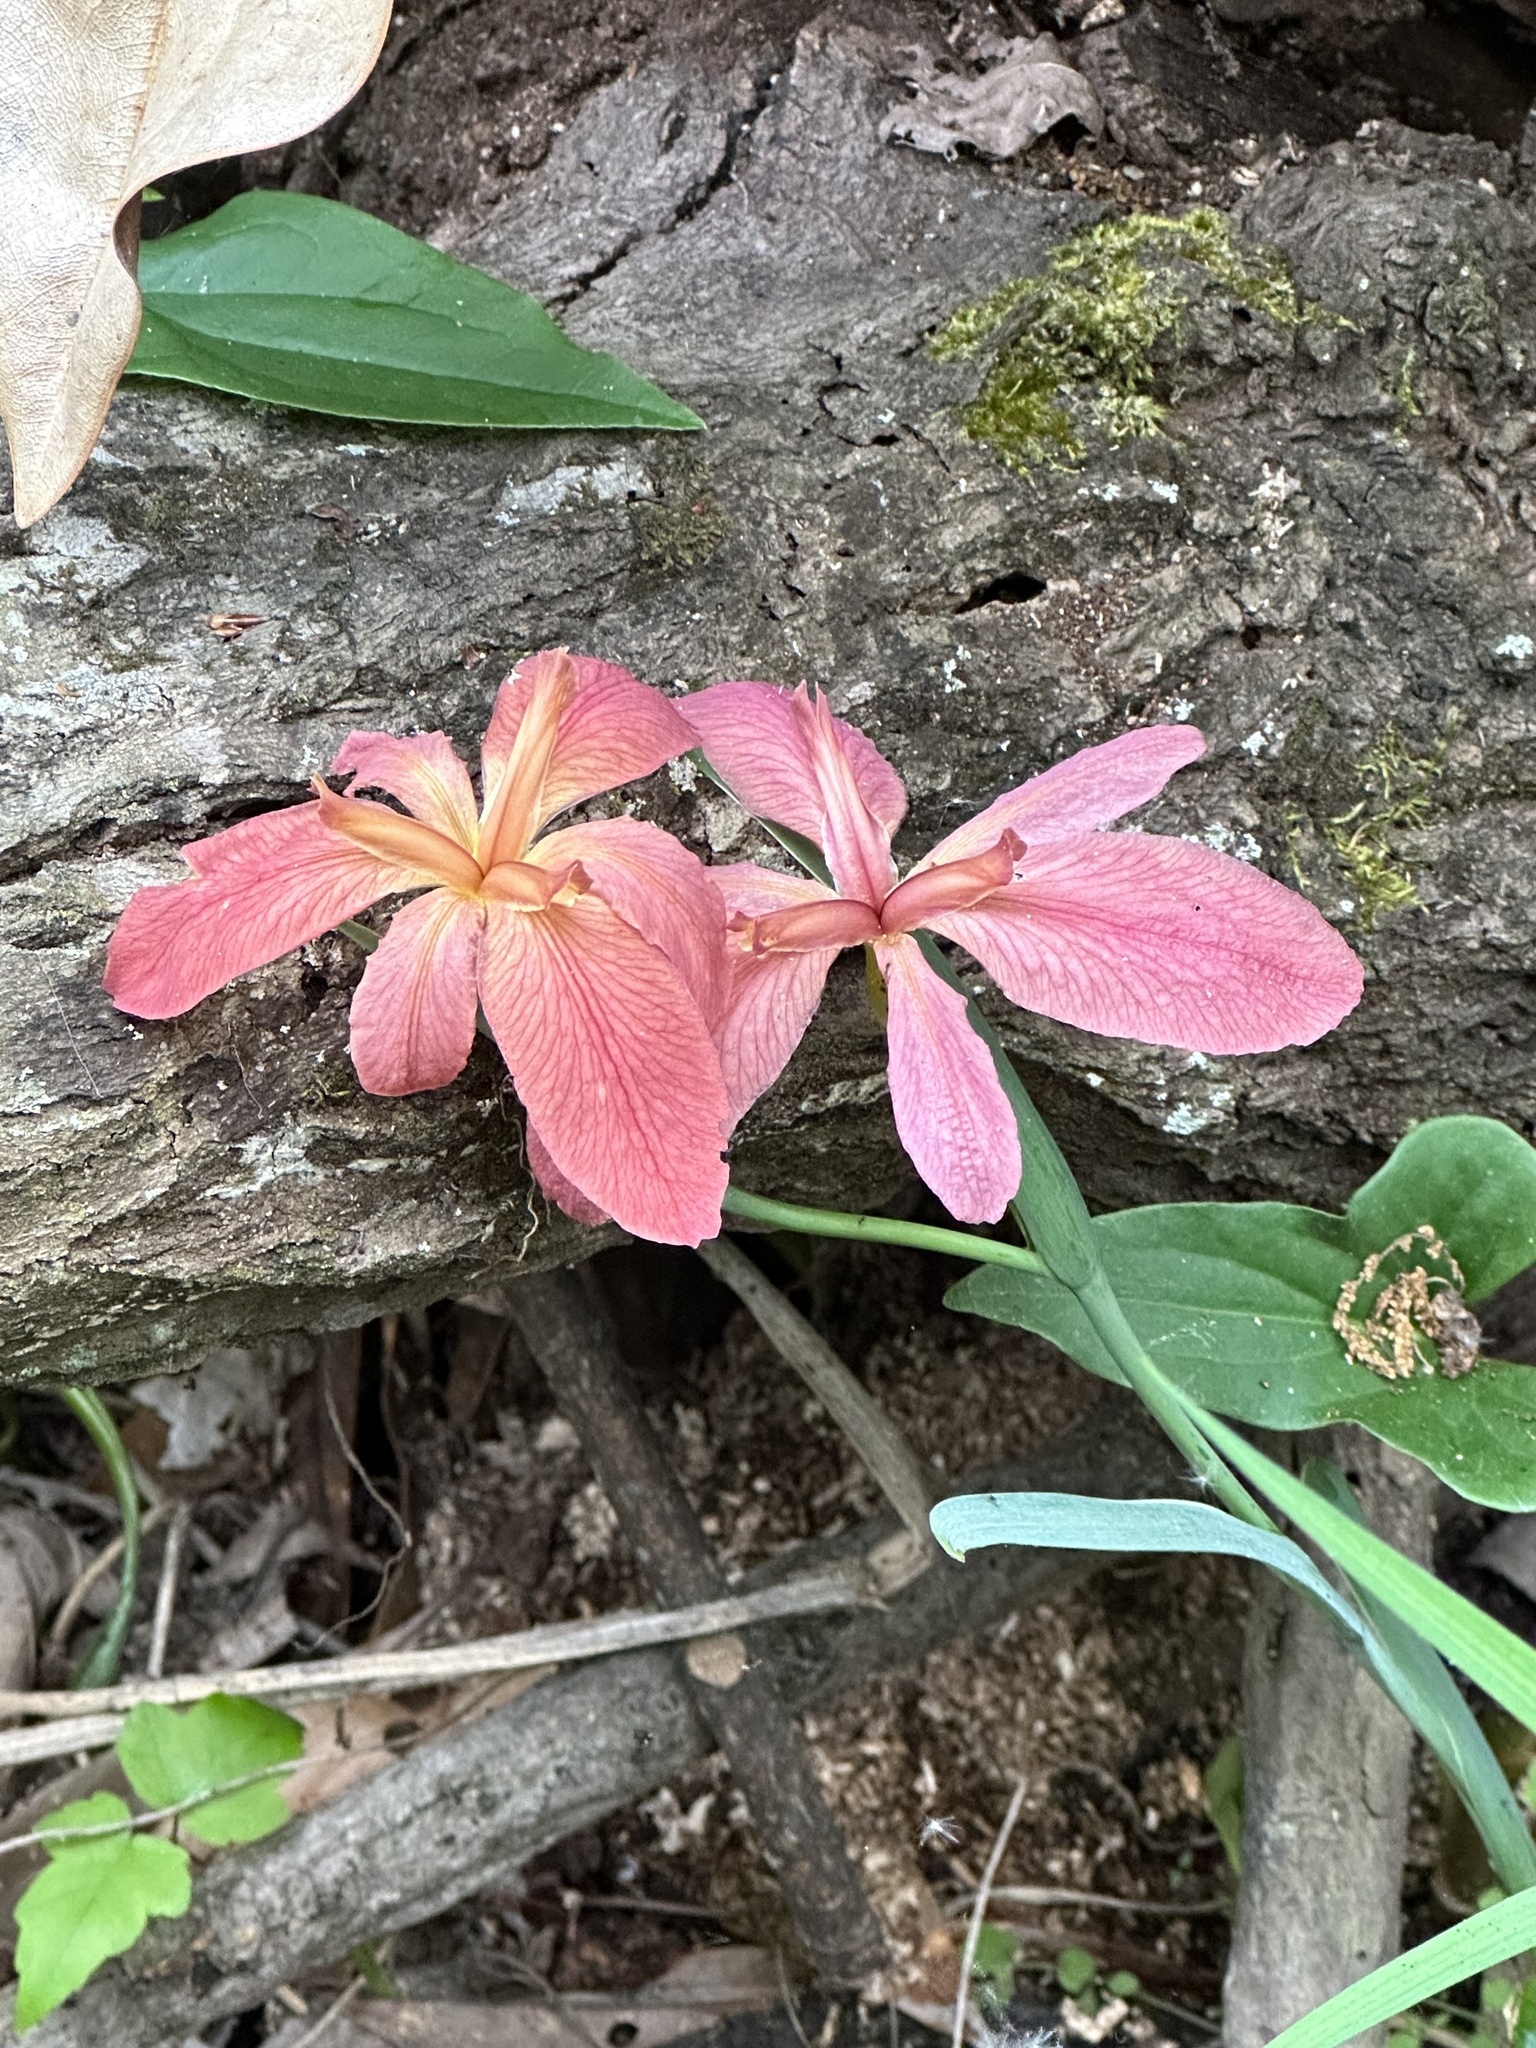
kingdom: Plantae
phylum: Tracheophyta
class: Liliopsida
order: Asparagales
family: Iridaceae
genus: Iris
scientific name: Iris fulva
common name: Copper iris
